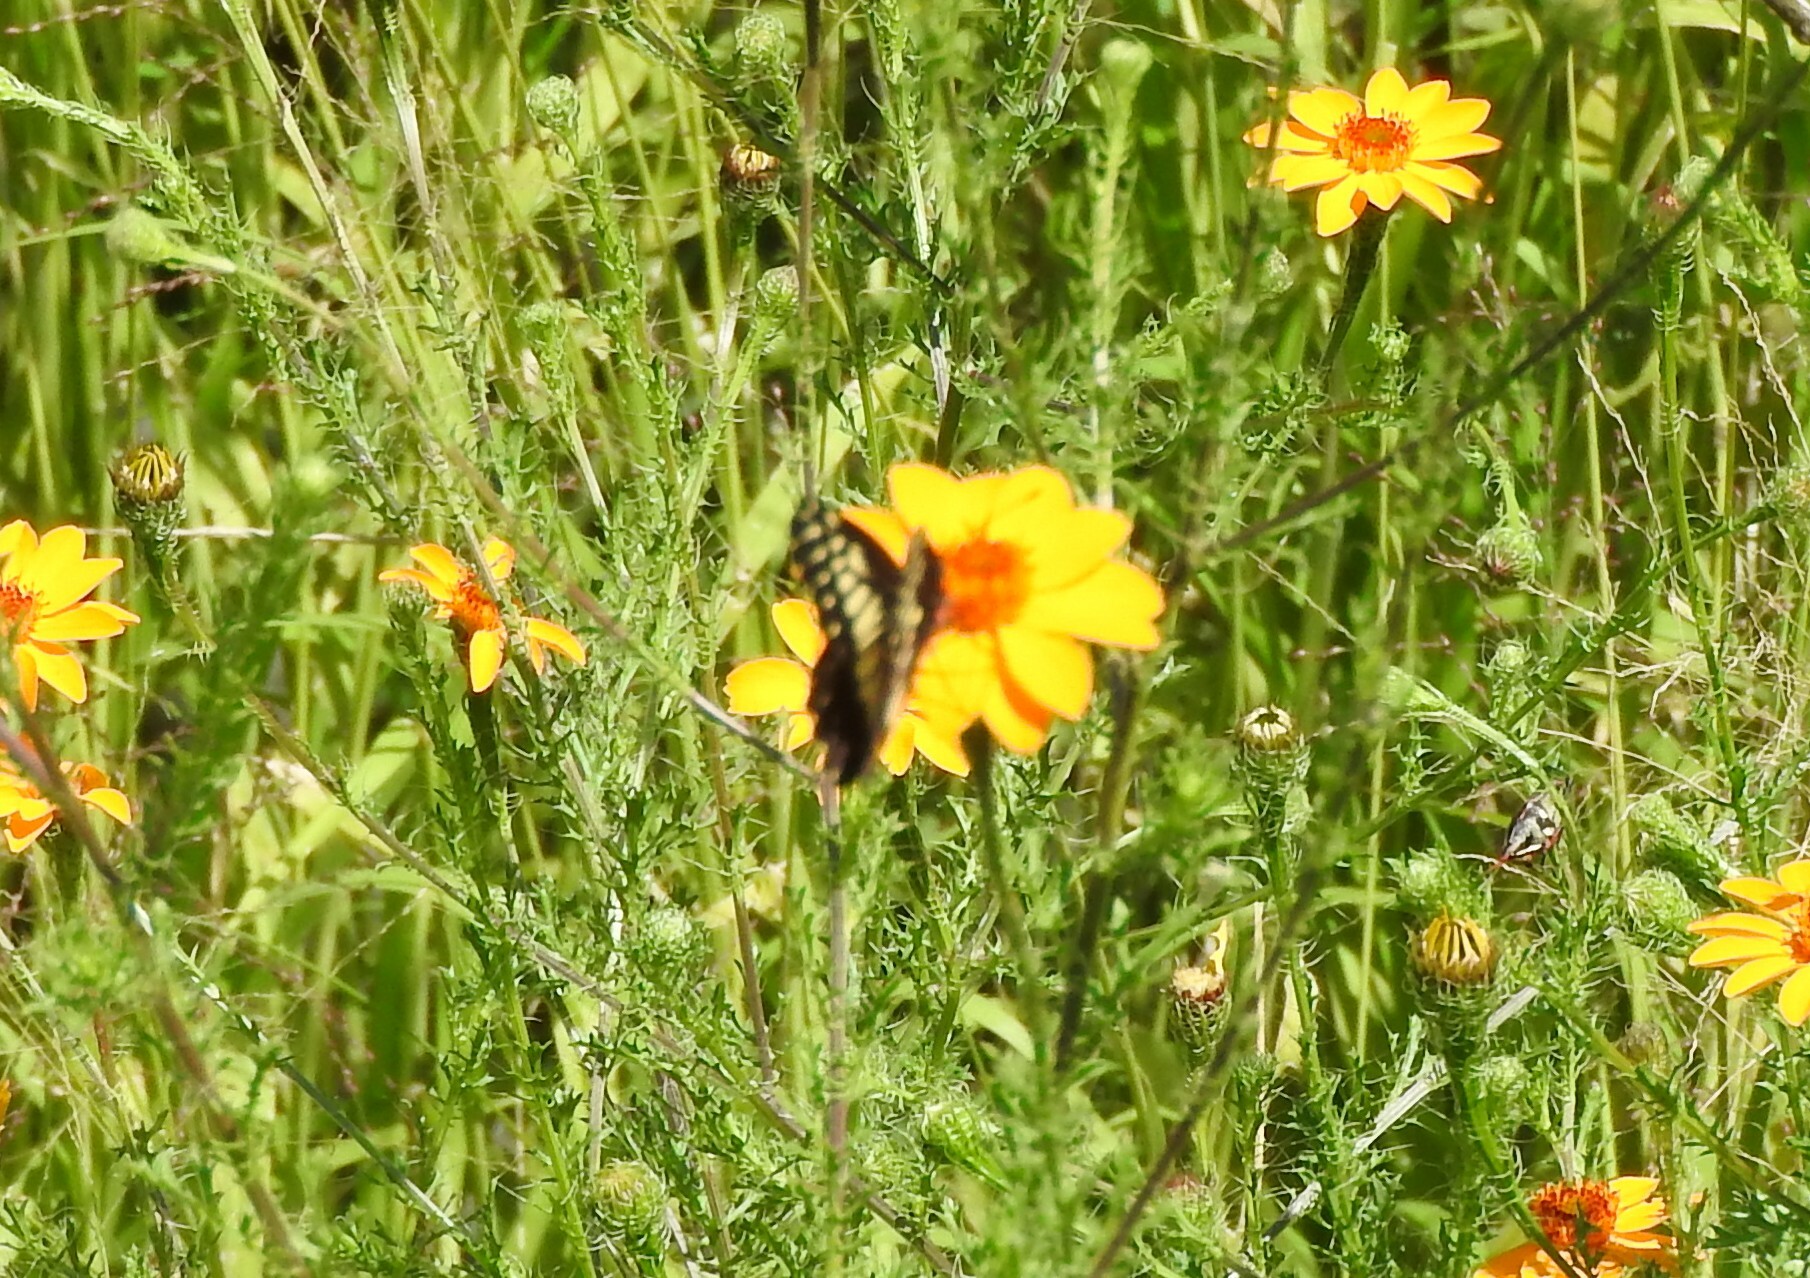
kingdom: Animalia
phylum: Arthropoda
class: Insecta
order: Lepidoptera
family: Pieridae
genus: Archonias
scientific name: Archonias nimbice
